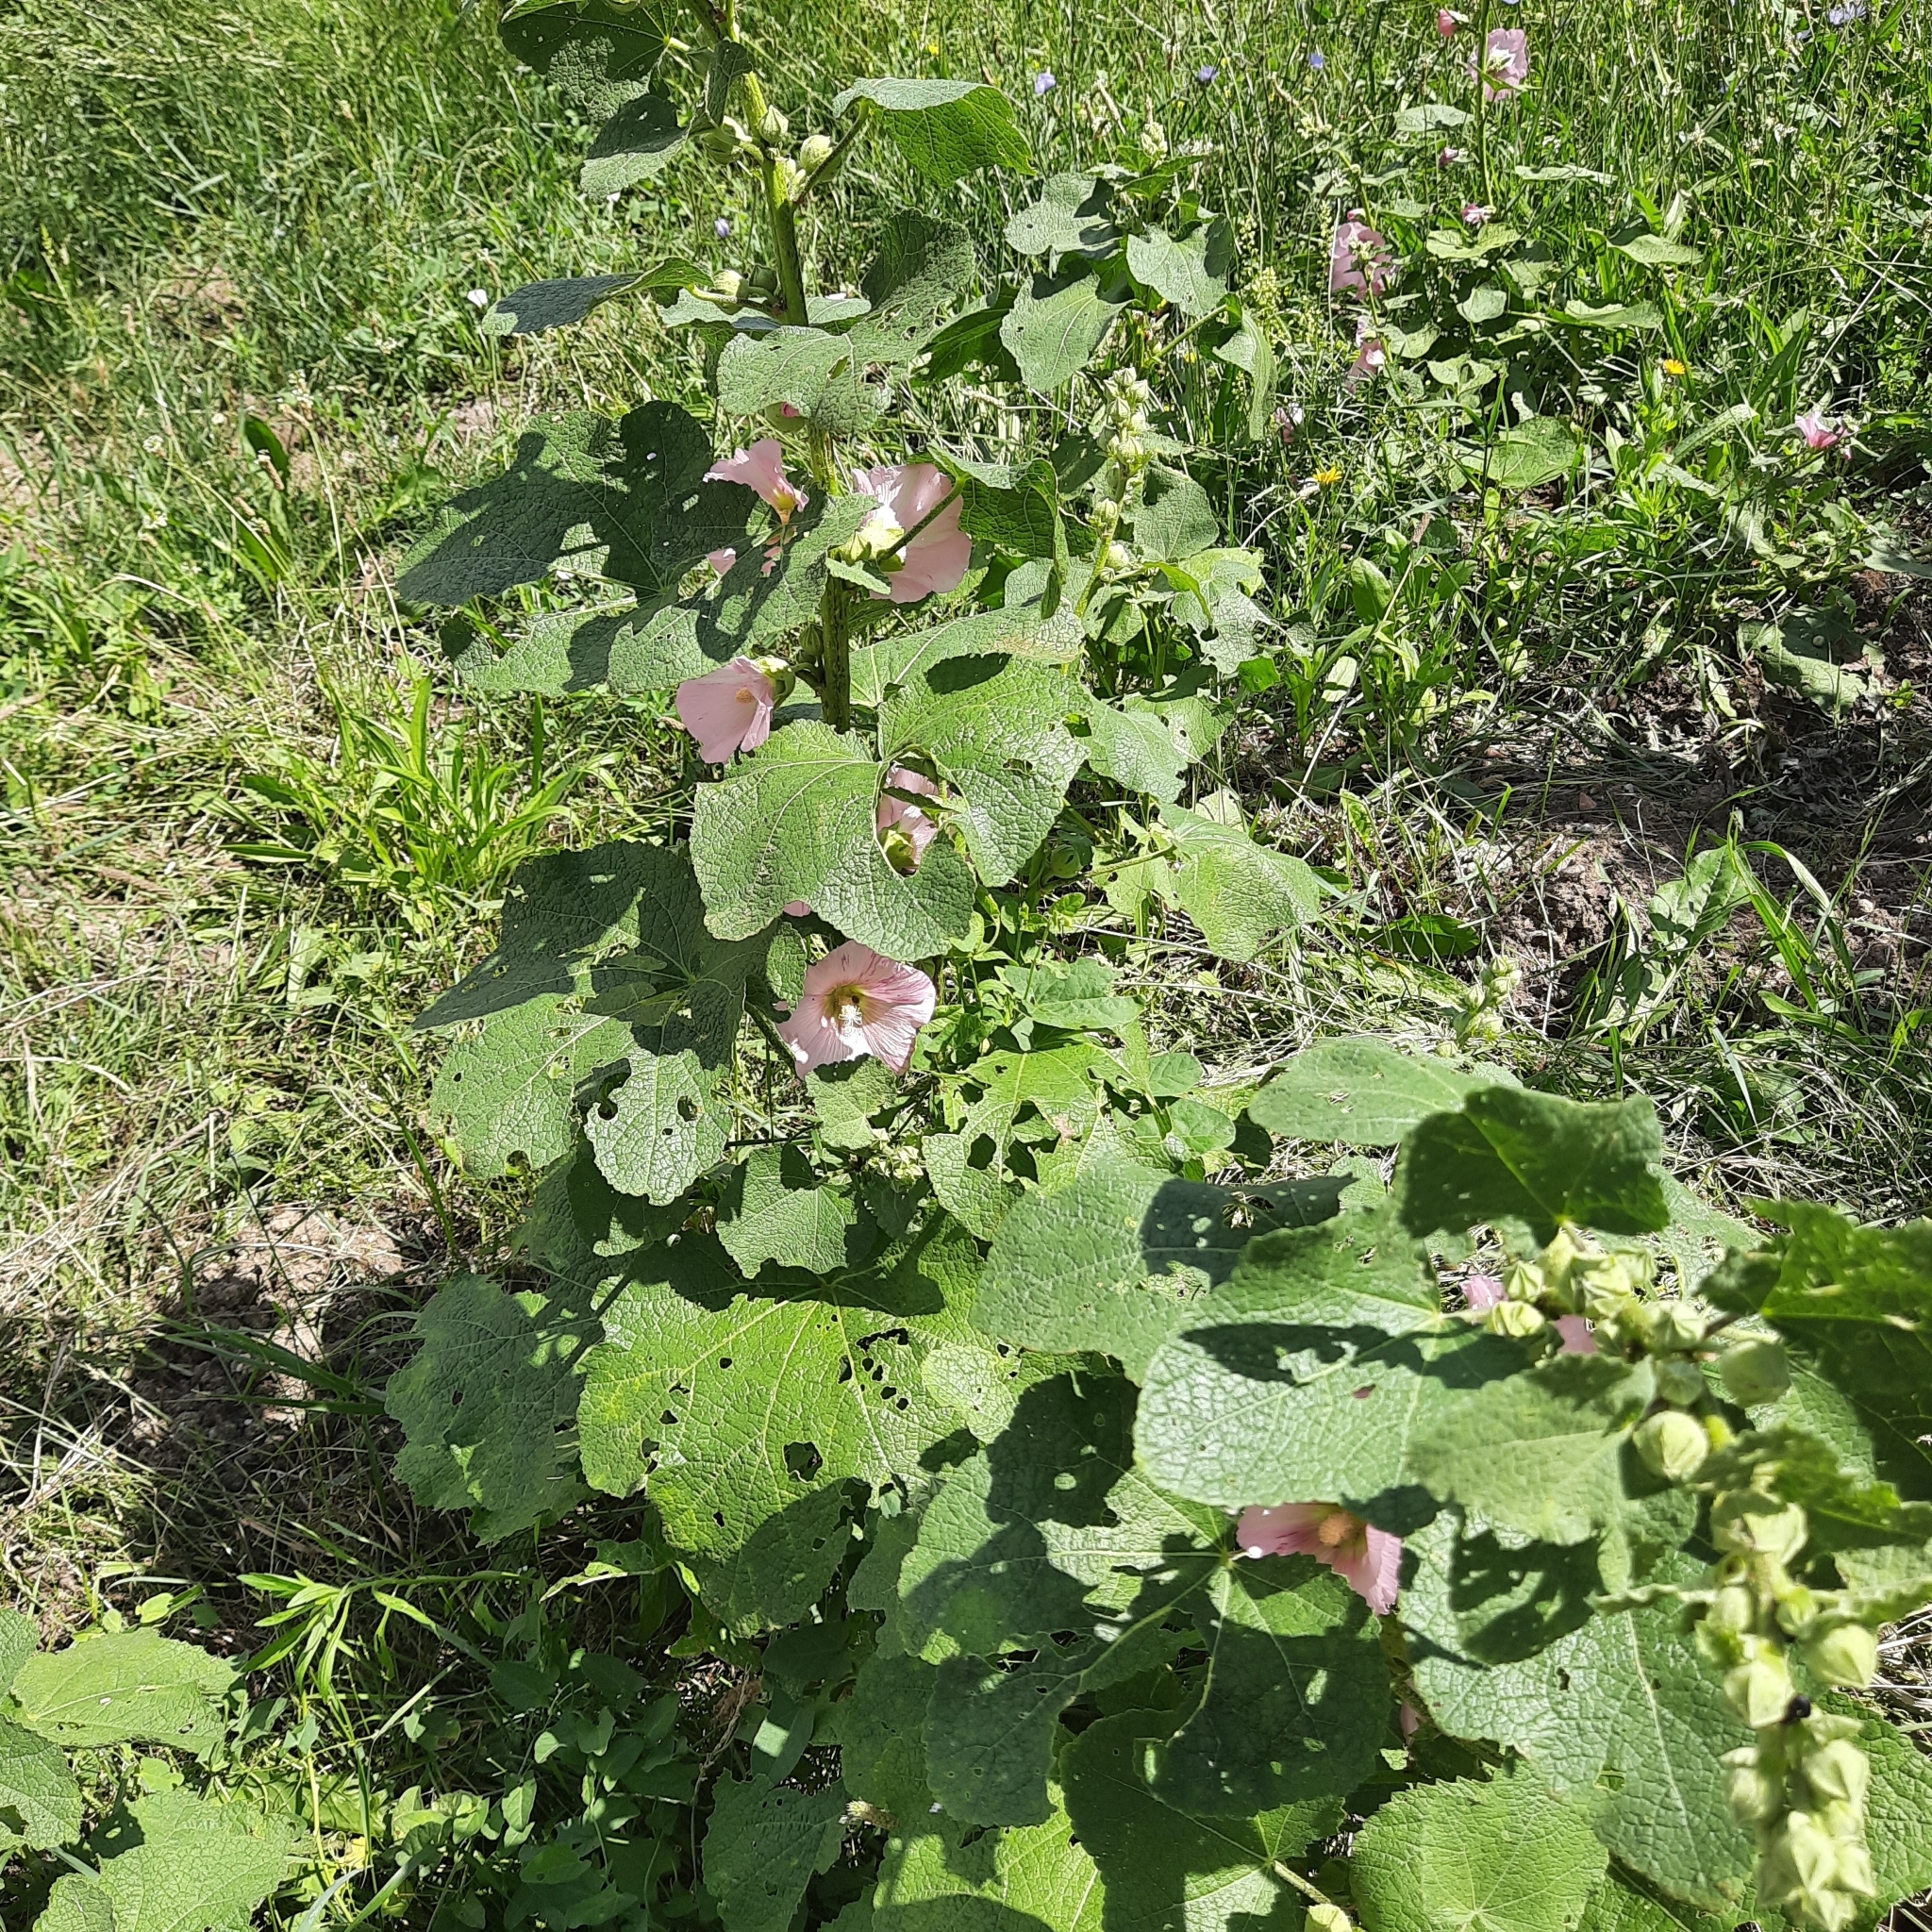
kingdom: Plantae
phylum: Tracheophyta
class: Magnoliopsida
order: Malvales
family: Malvaceae
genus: Alcea
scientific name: Alcea rosea
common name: Hollyhock
